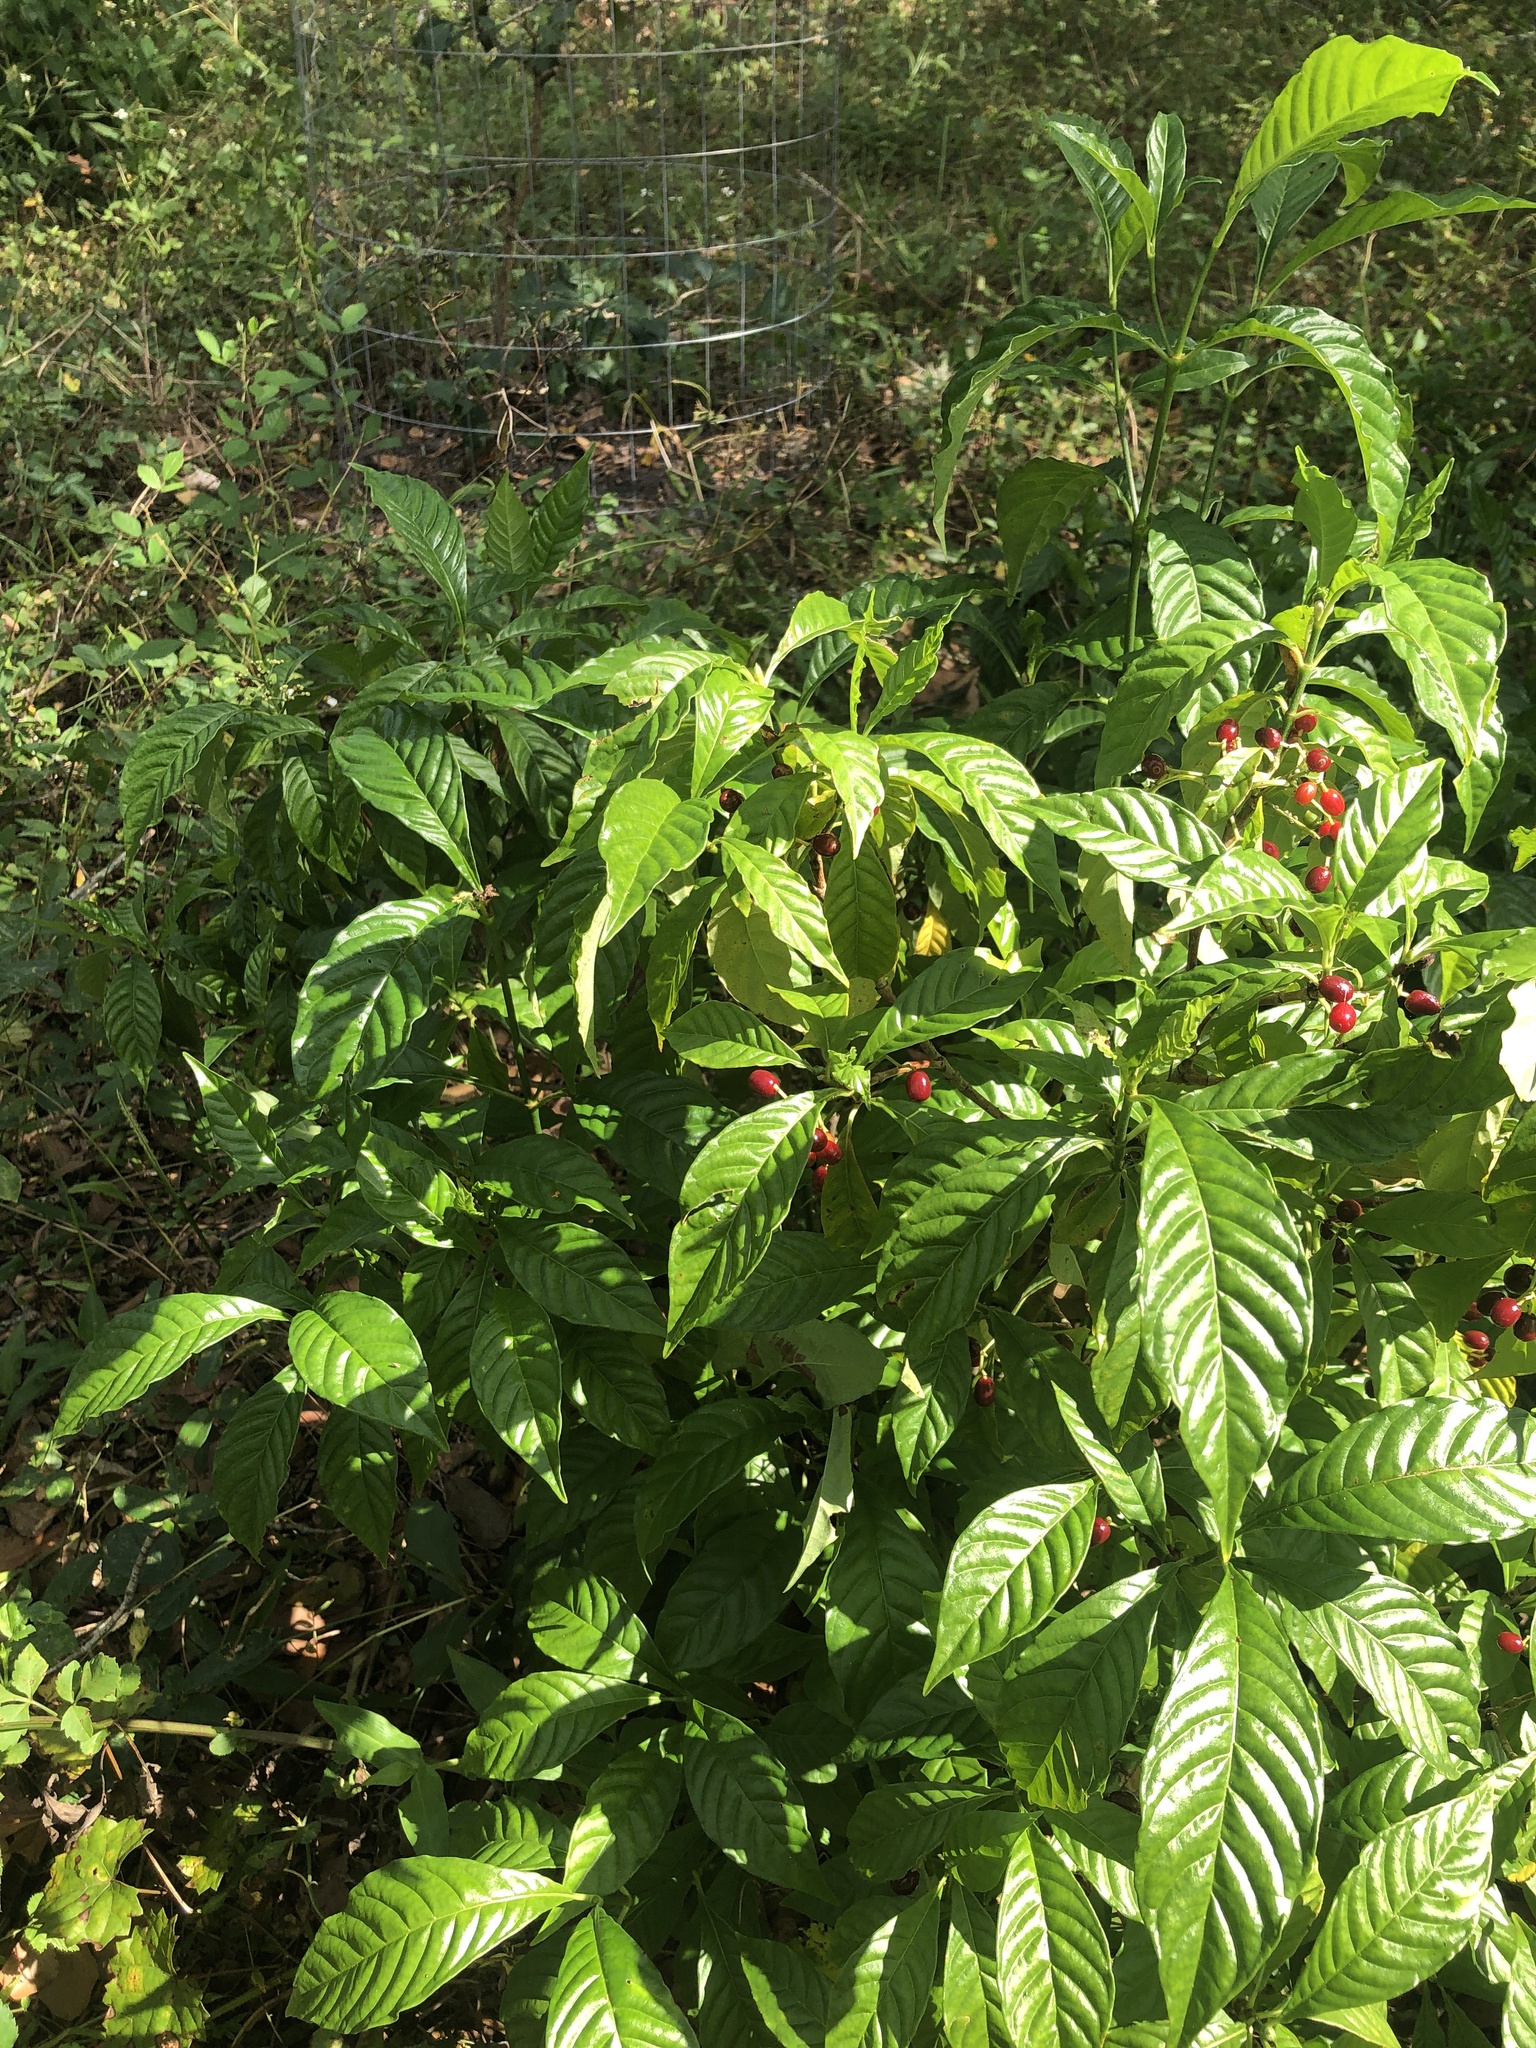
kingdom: Plantae
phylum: Tracheophyta
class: Magnoliopsida
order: Gentianales
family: Rubiaceae
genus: Psychotria
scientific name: Psychotria nervosa
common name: Bastard cankerberry
